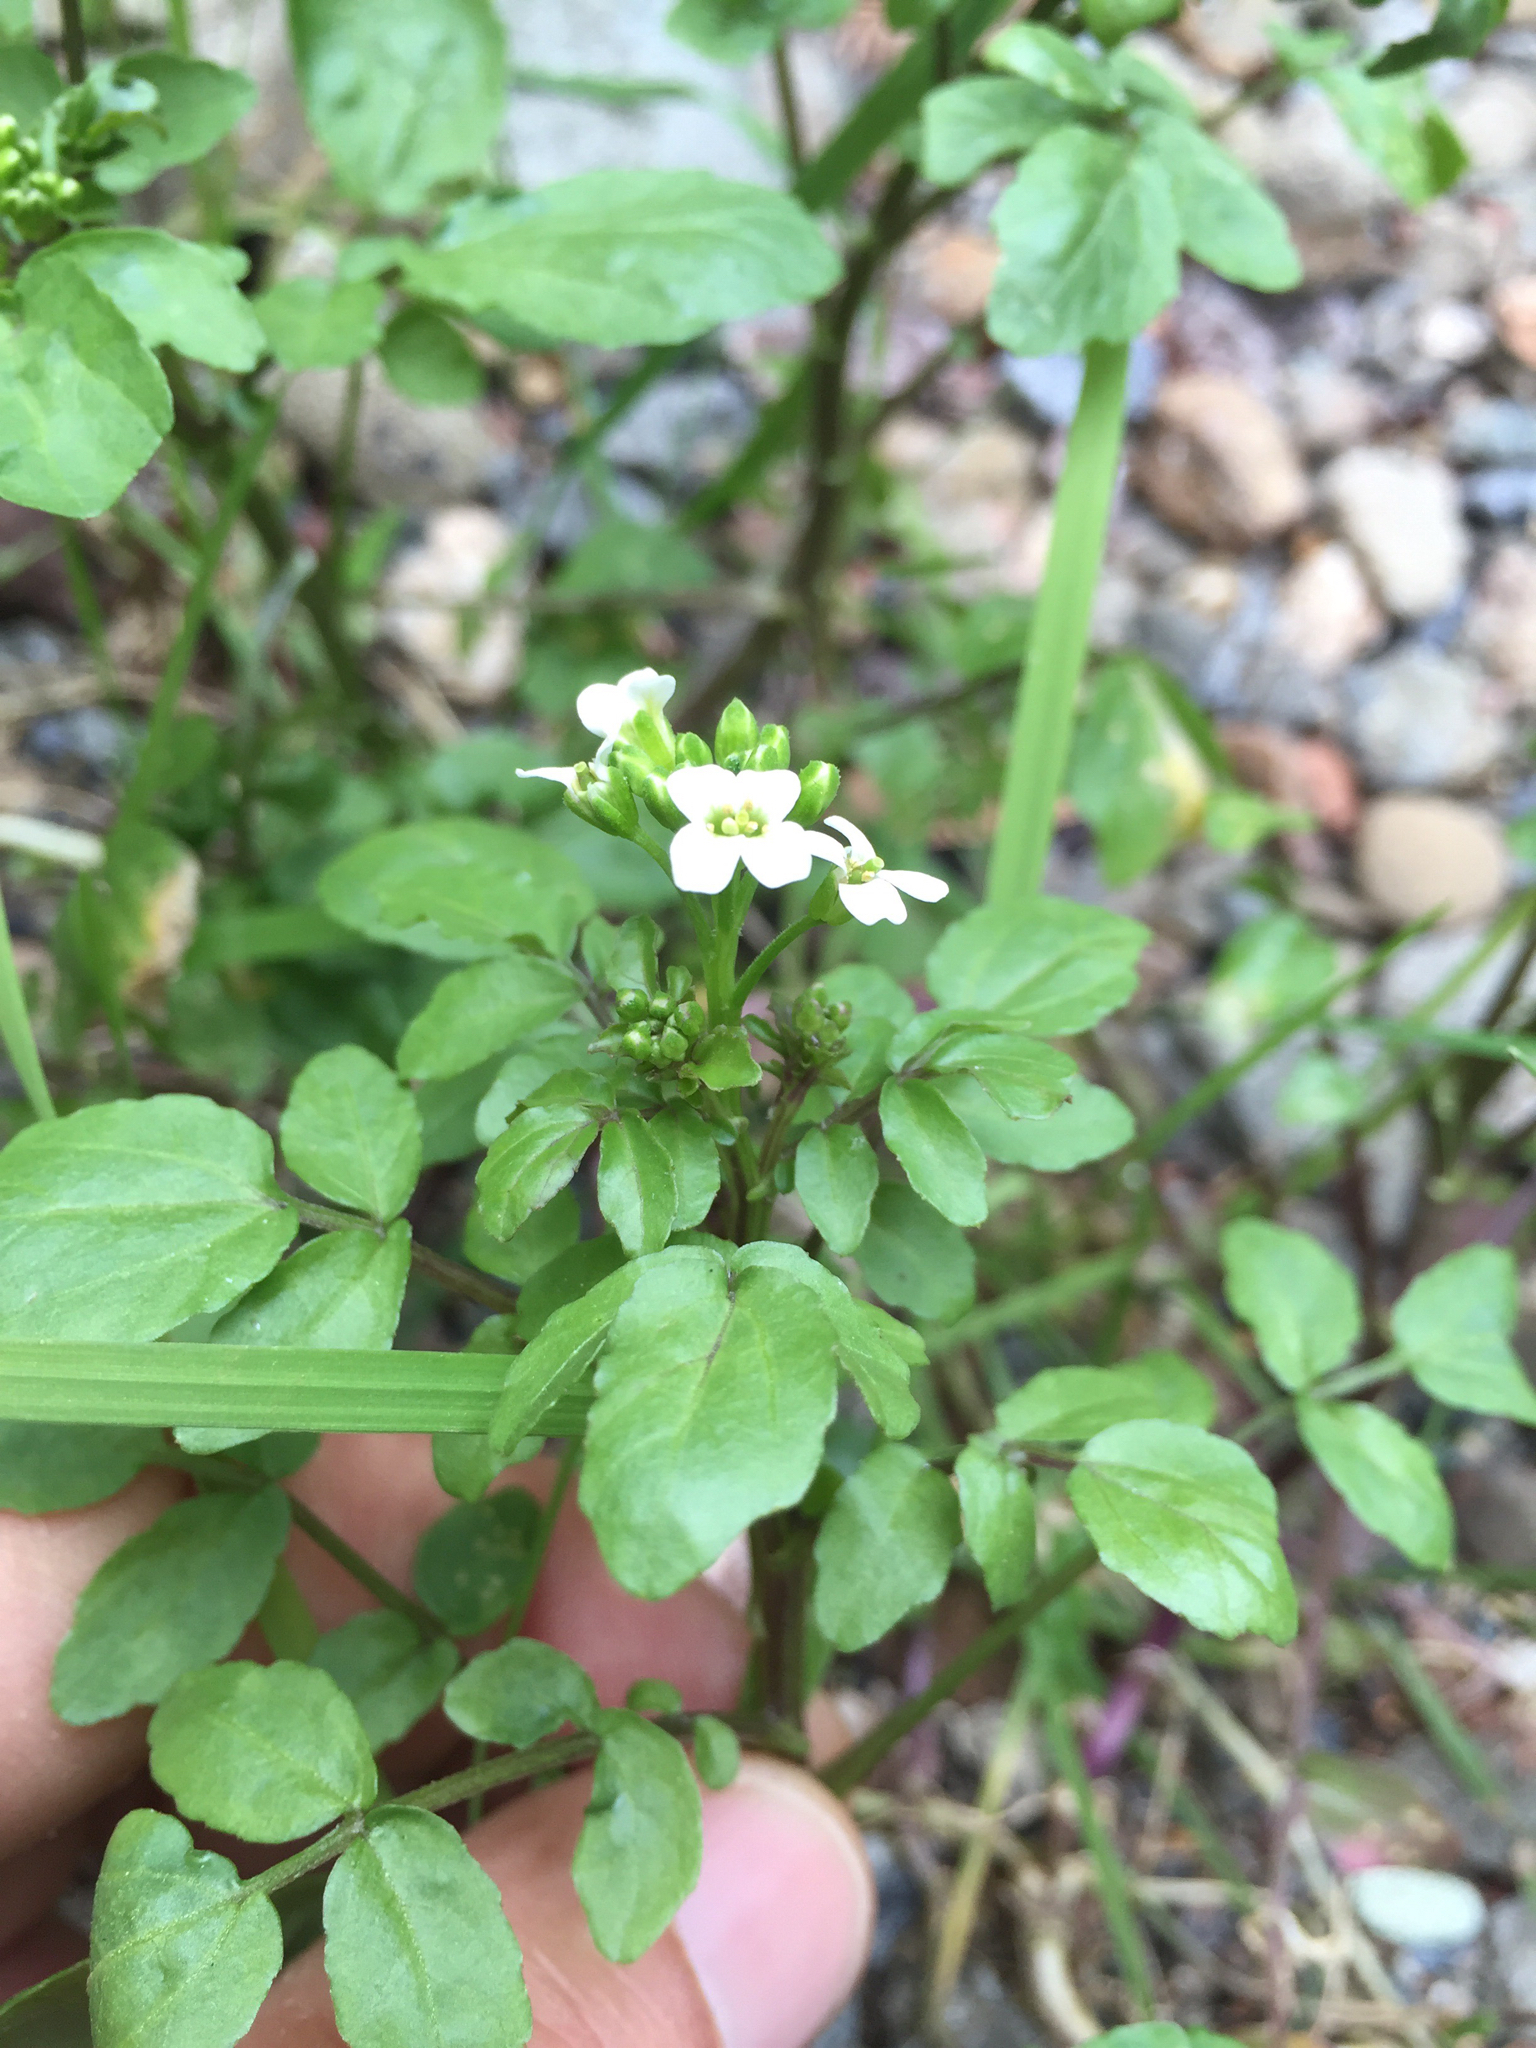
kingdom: Plantae
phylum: Tracheophyta
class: Magnoliopsida
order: Brassicales
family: Brassicaceae
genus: Nasturtium
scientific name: Nasturtium officinale
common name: Watercress
